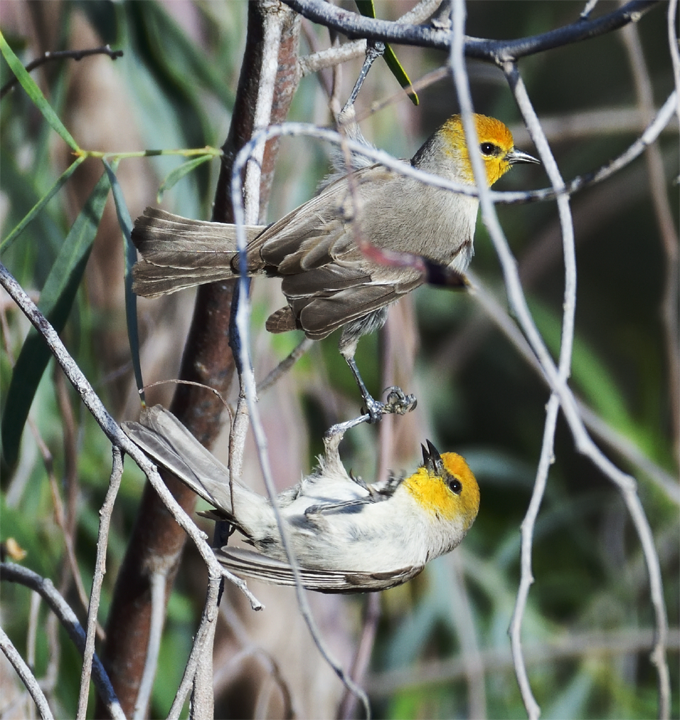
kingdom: Animalia
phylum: Chordata
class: Aves
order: Passeriformes
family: Remizidae
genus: Auriparus
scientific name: Auriparus flaviceps
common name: Verdin
